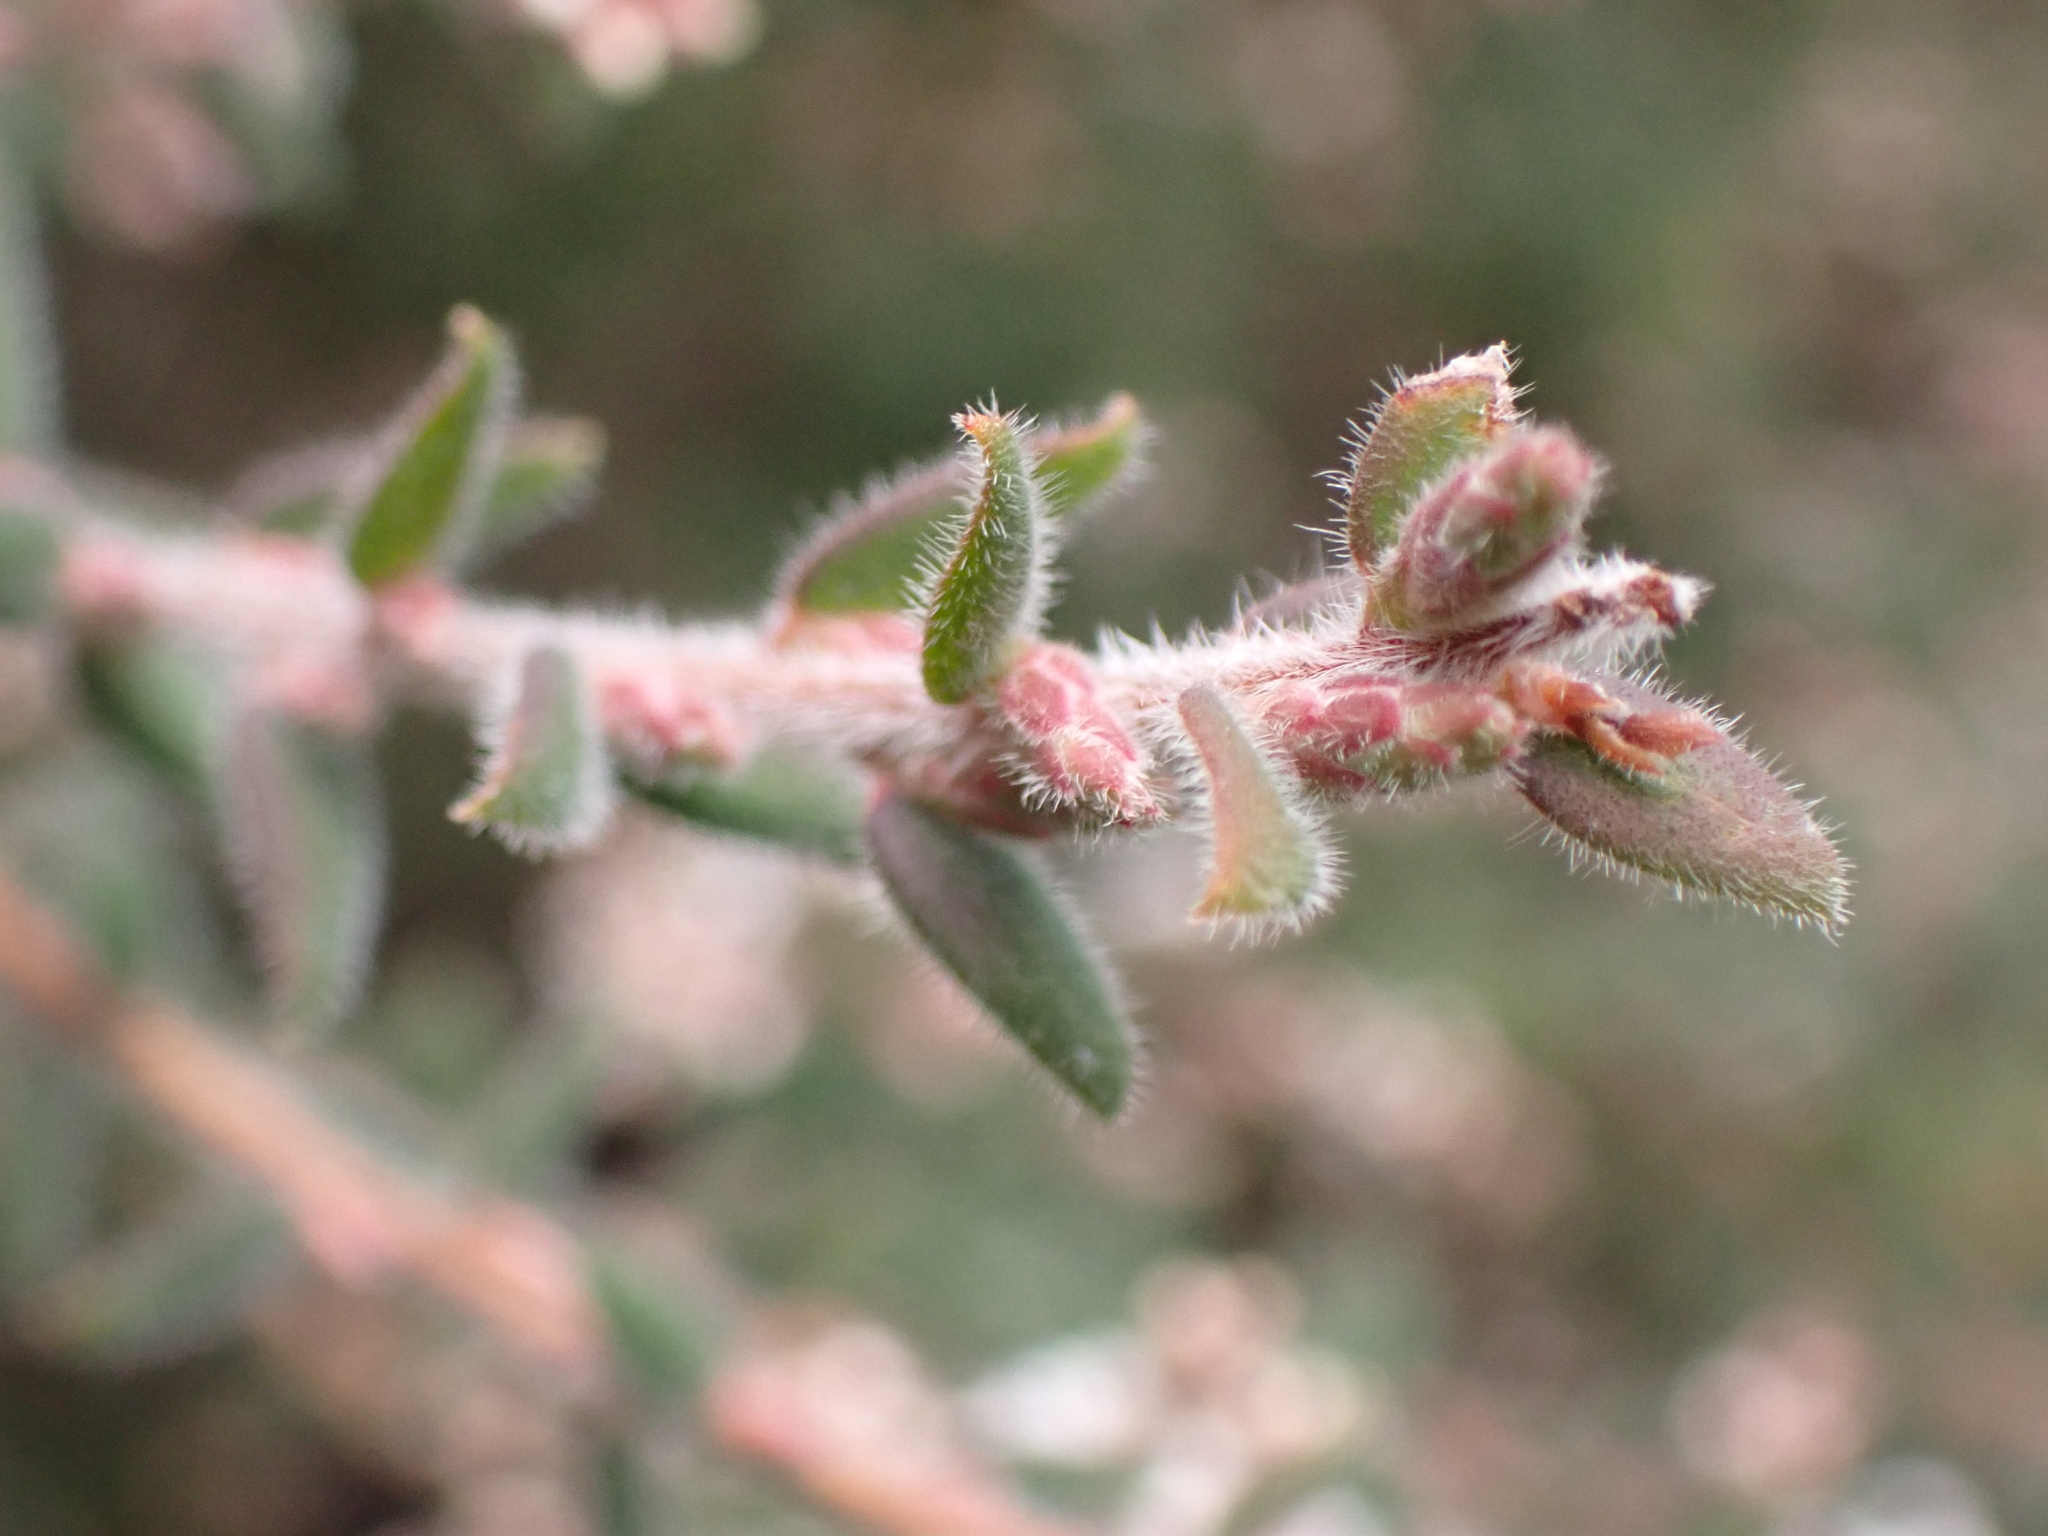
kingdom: Plantae
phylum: Tracheophyta
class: Magnoliopsida
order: Ericales
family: Ericaceae
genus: Leucopogon
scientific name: Leucopogon thymifolius
